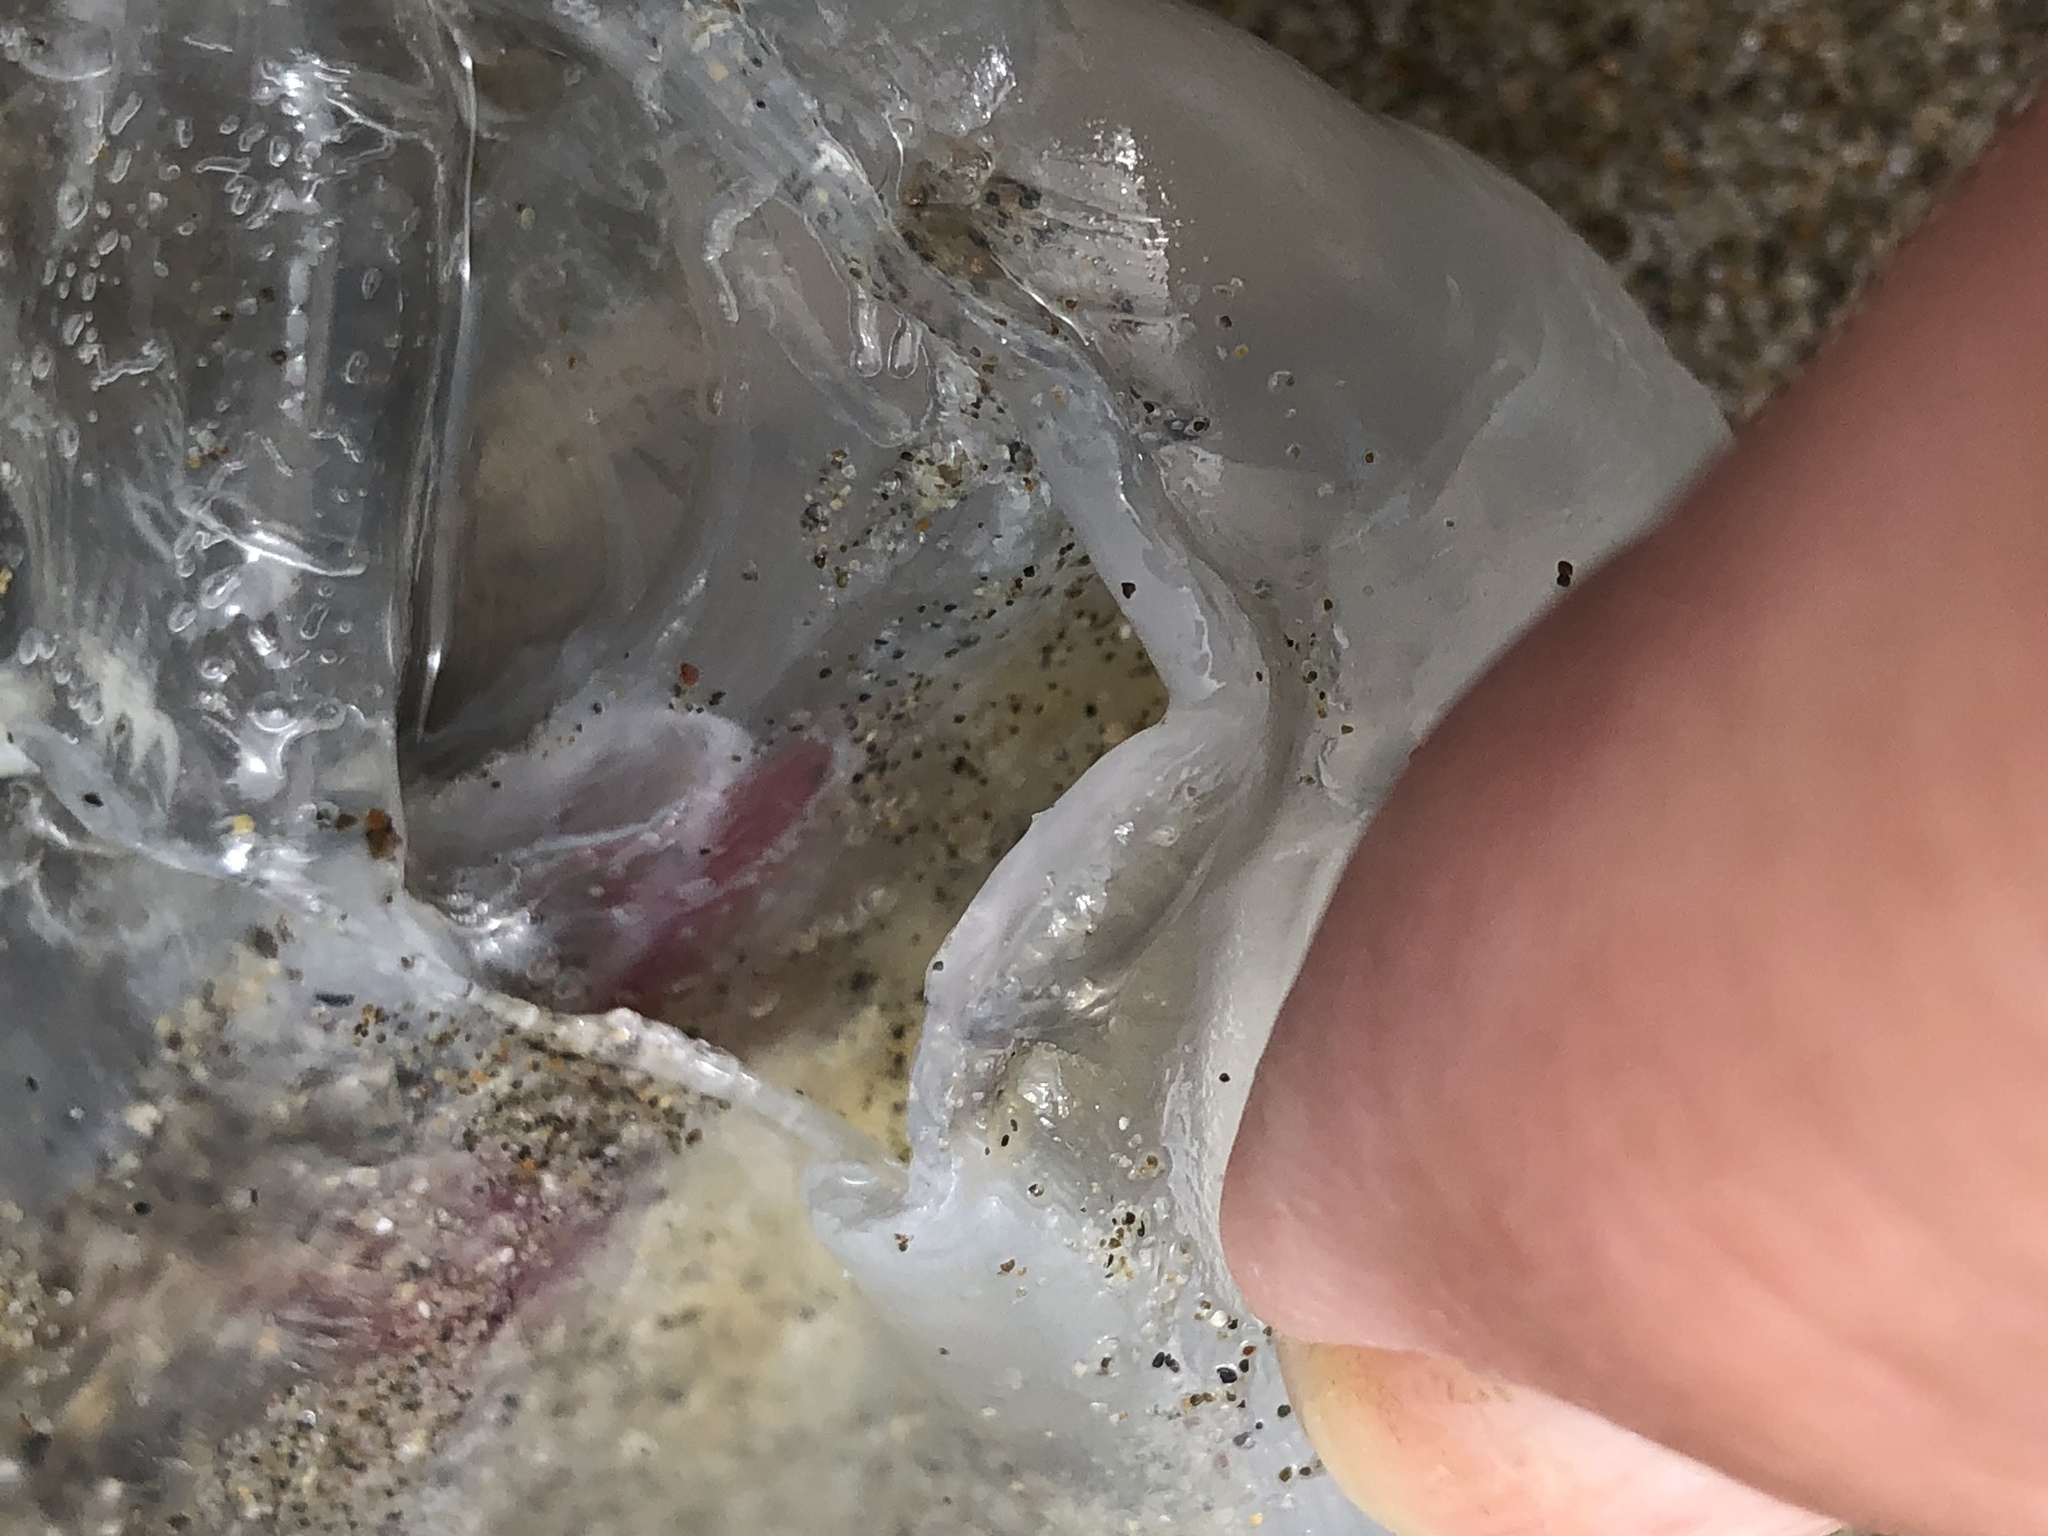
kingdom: Animalia
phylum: Chordata
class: Thaliacea
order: Salpida
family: Salpidae
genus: Thetys
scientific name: Thetys vagina
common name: Vagina salp
